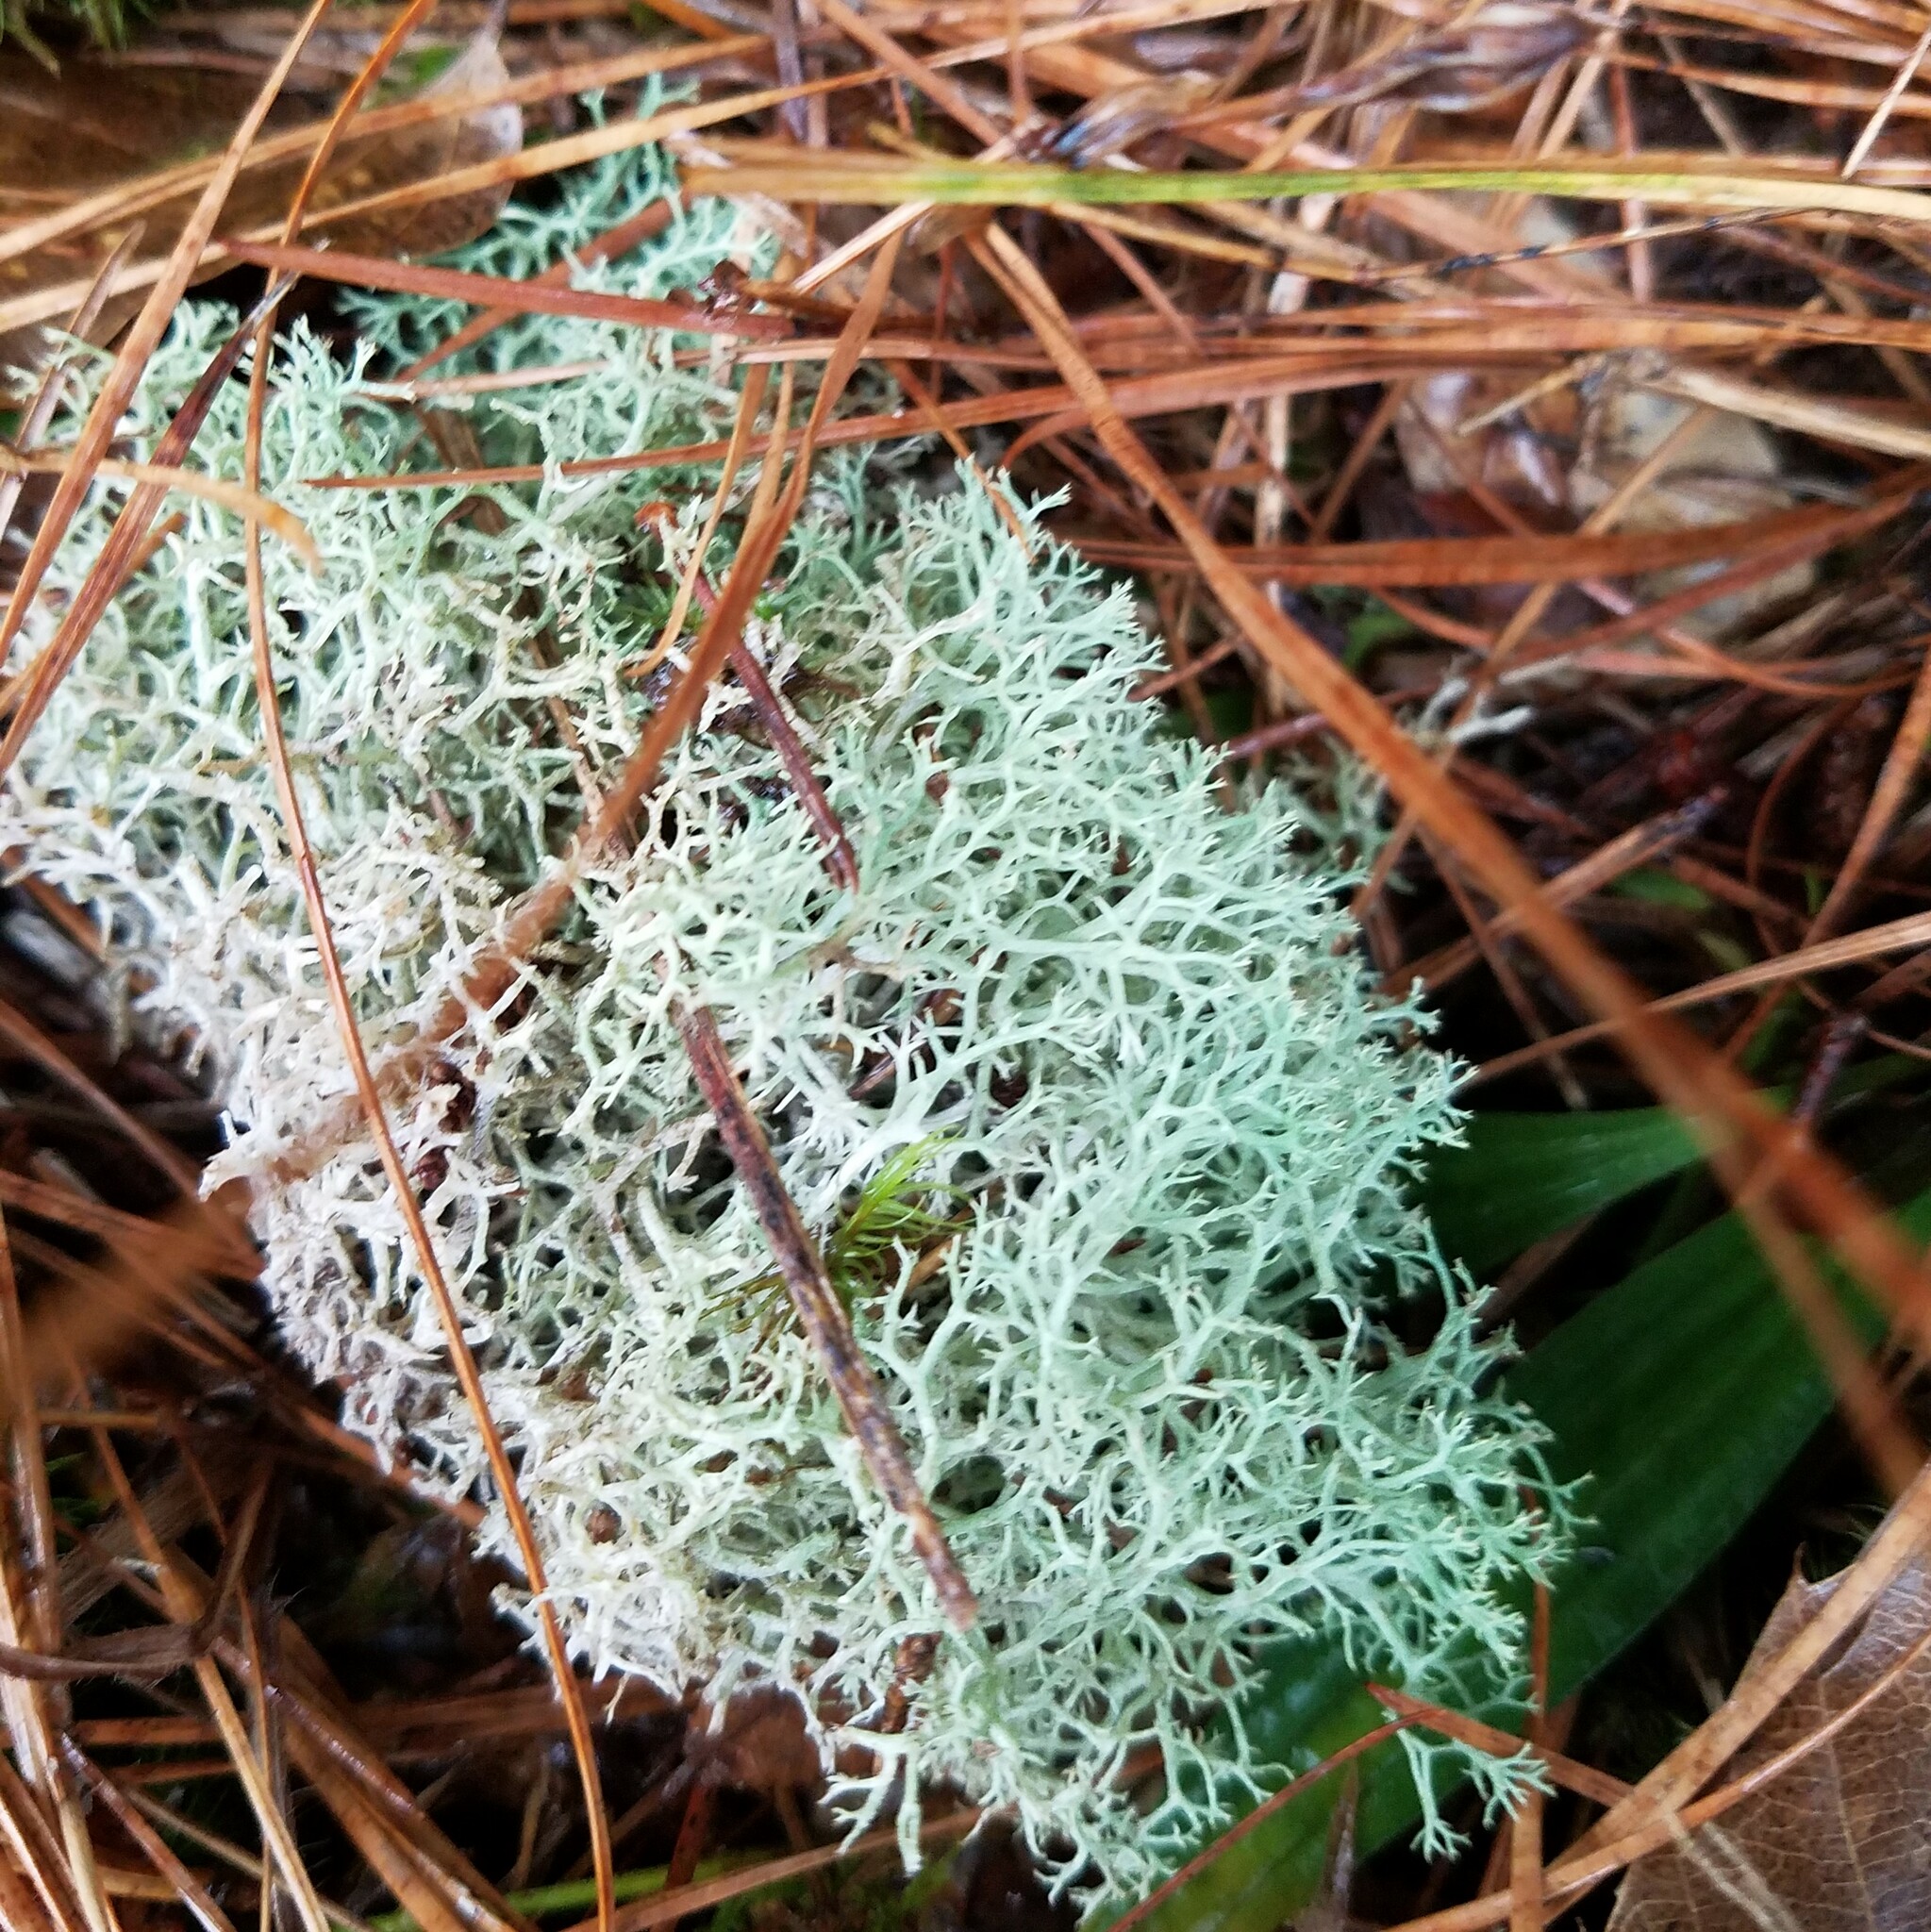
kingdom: Fungi
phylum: Ascomycota
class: Lecanoromycetes
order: Lecanorales
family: Cladoniaceae
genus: Cladonia
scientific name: Cladonia subtenuis
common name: Dixie reindeer lichen
